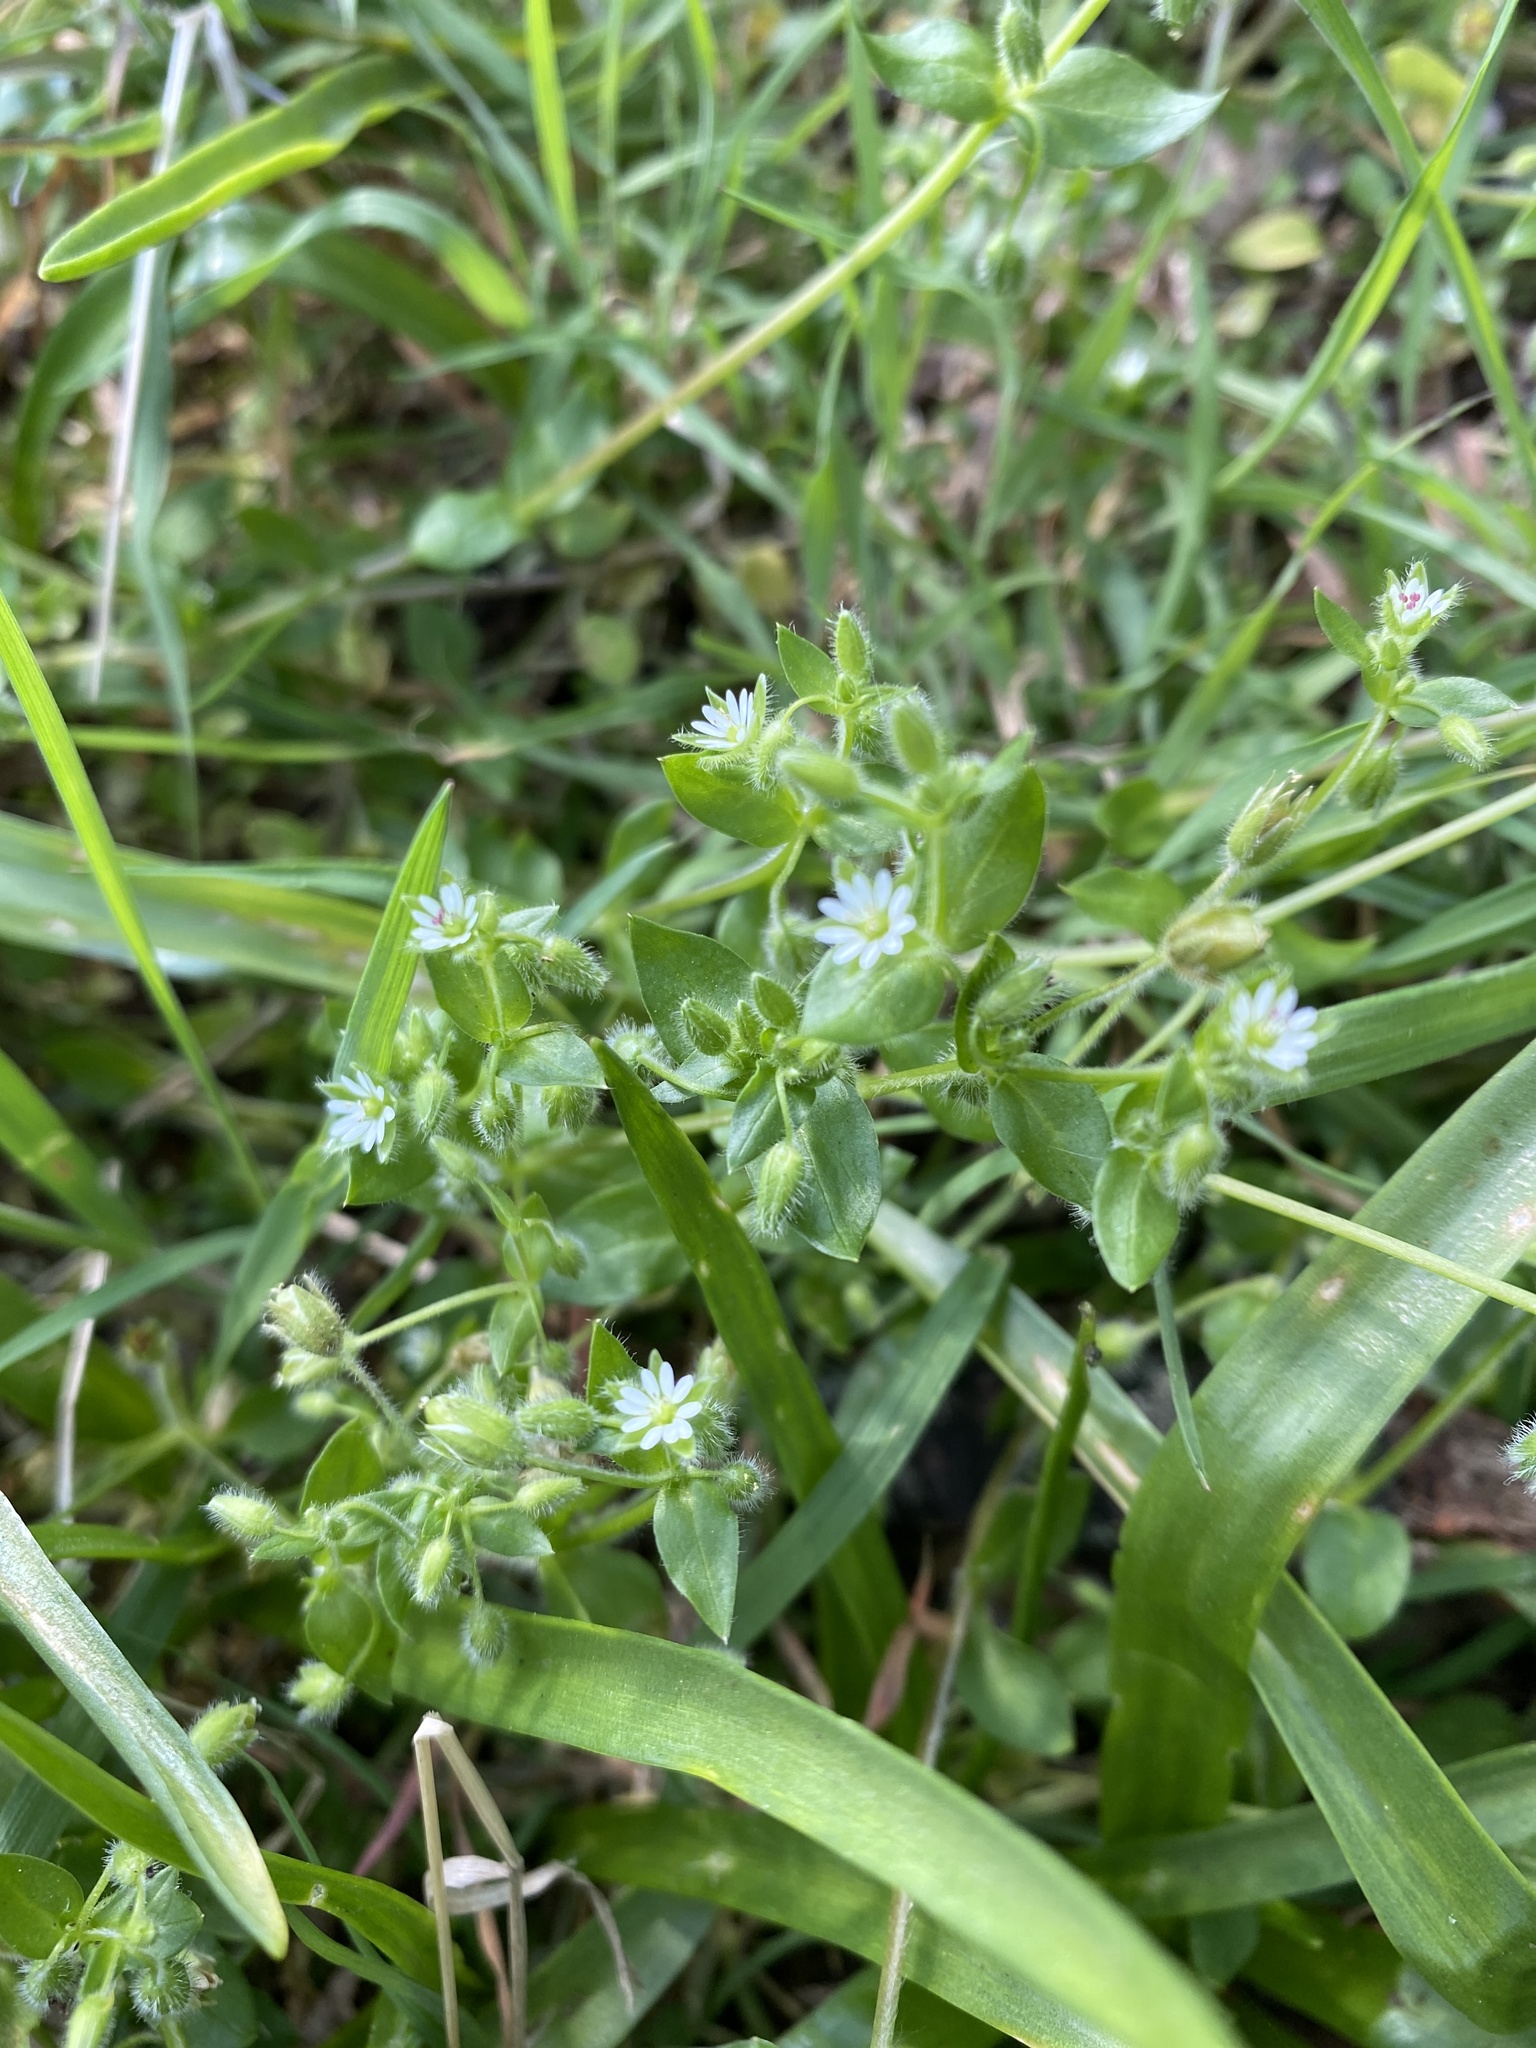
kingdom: Plantae
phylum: Tracheophyta
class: Magnoliopsida
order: Caryophyllales
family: Caryophyllaceae
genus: Stellaria
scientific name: Stellaria media
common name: Common chickweed
